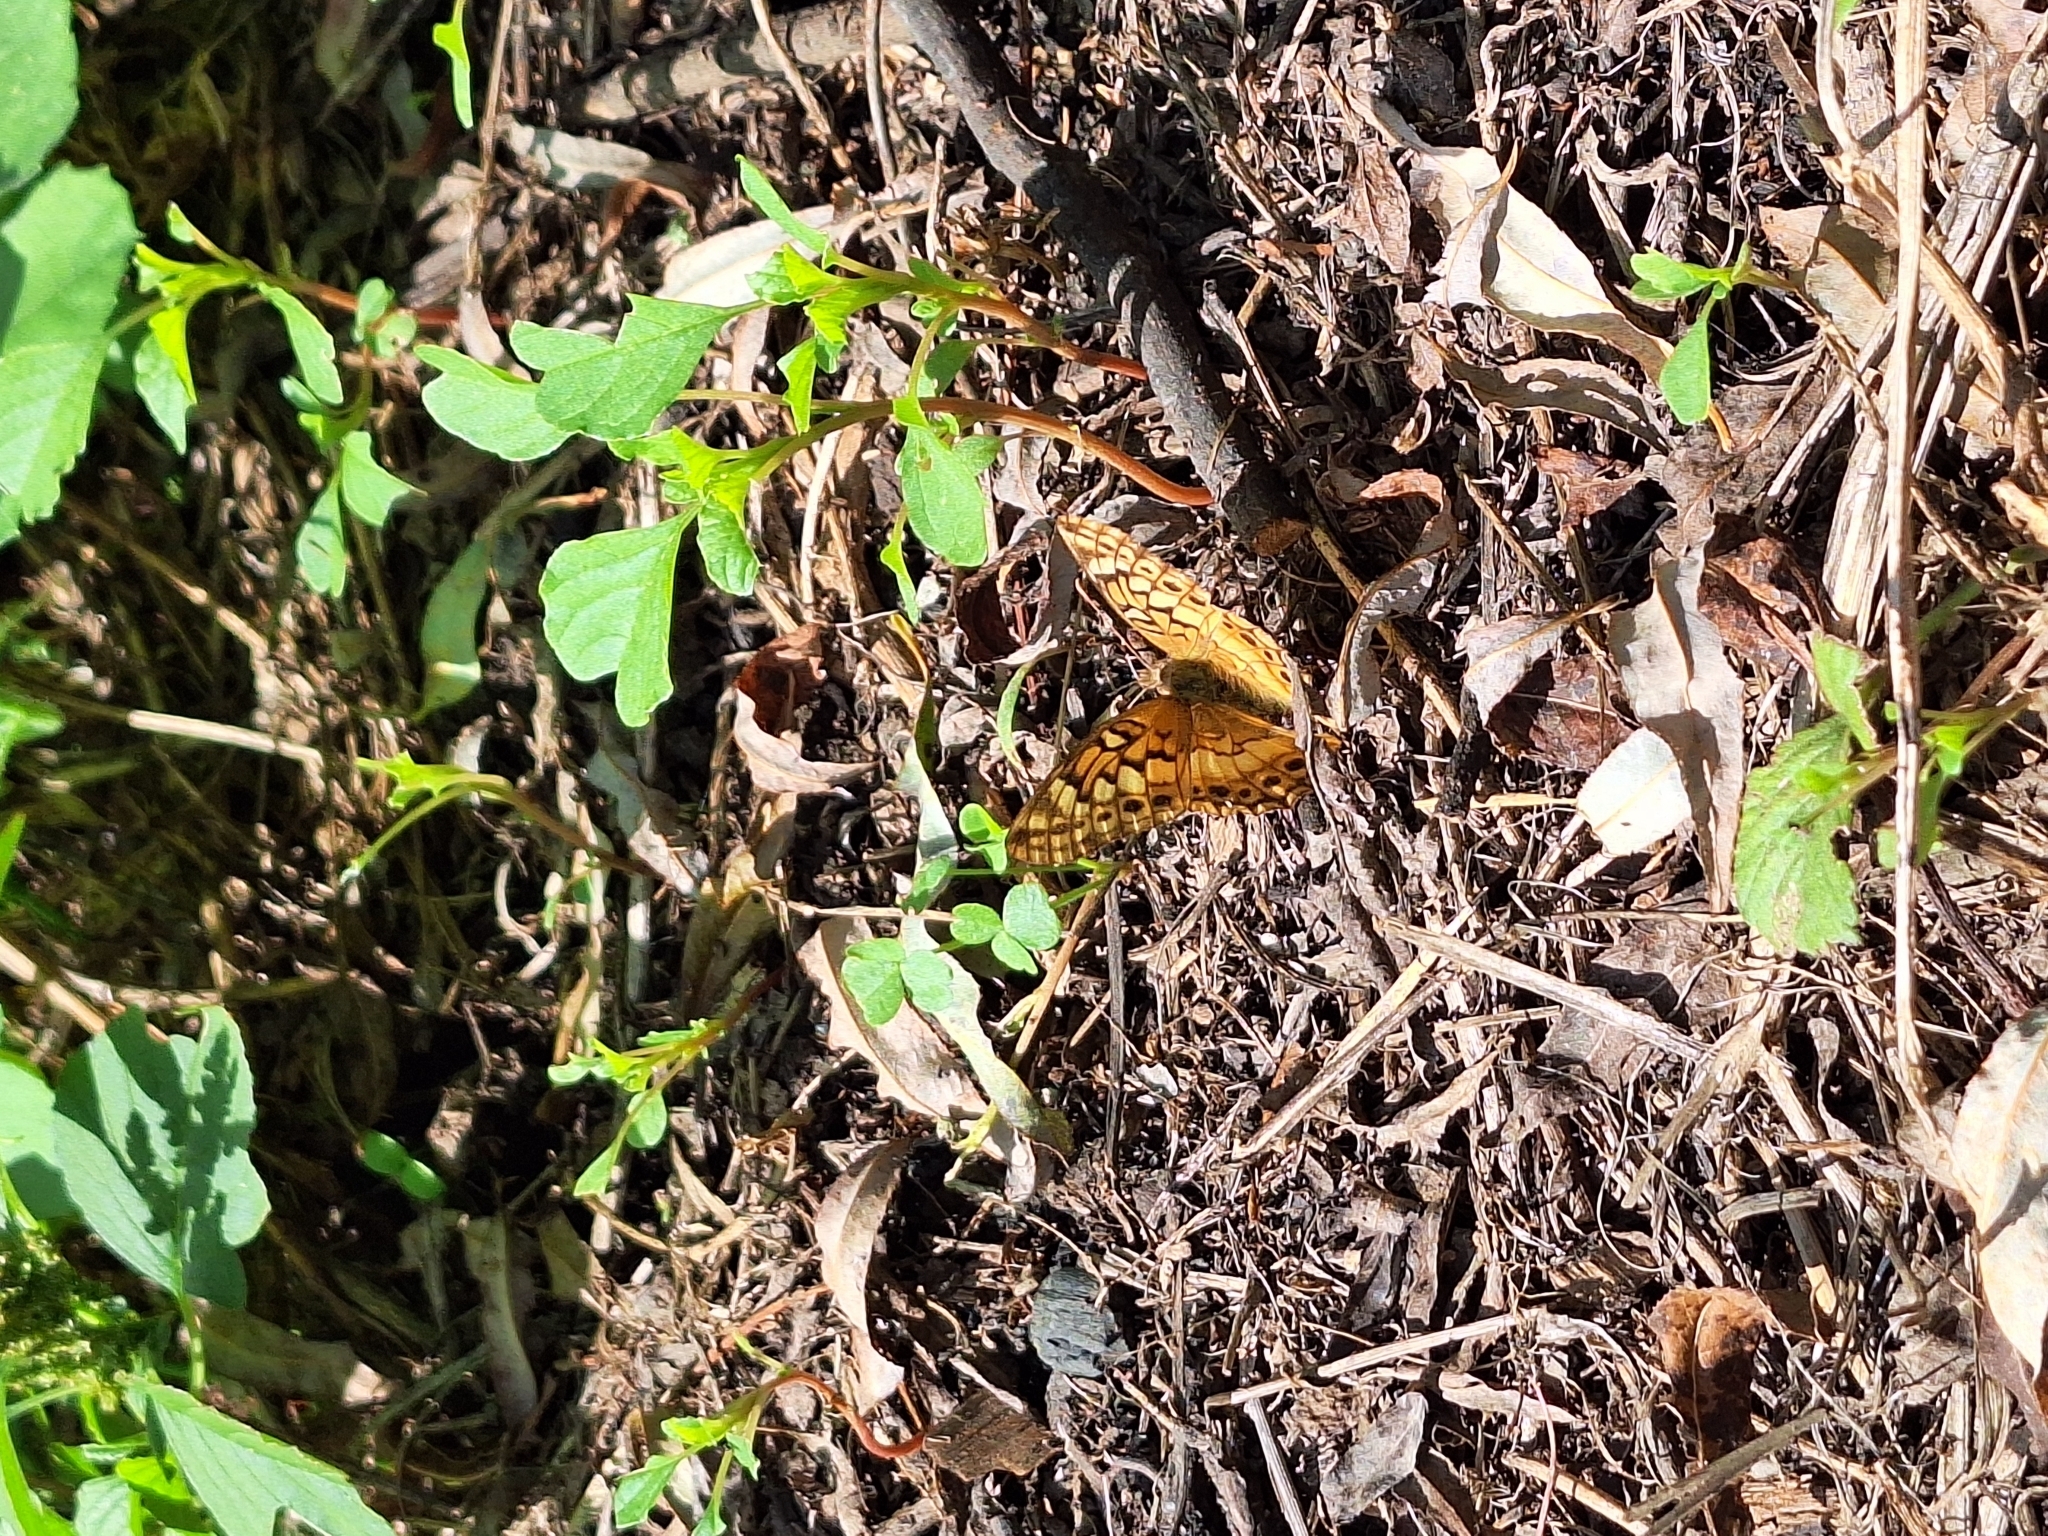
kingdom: Animalia
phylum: Arthropoda
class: Insecta
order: Lepidoptera
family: Nymphalidae
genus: Euptoieta
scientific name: Euptoieta hortensia
